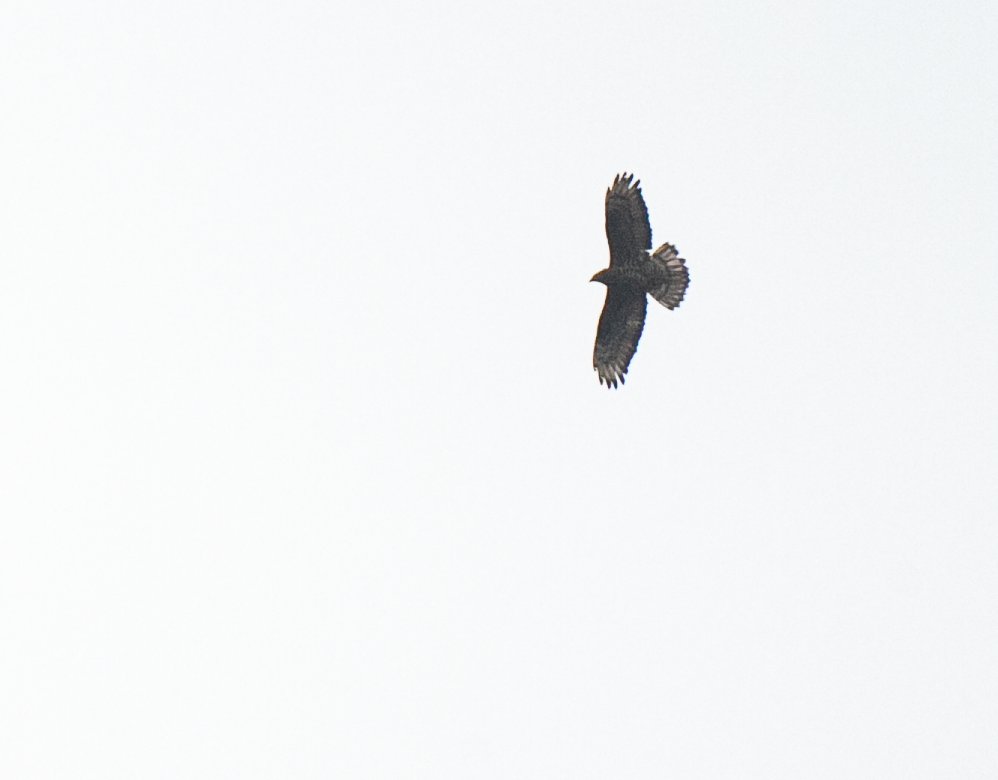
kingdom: Animalia
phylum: Chordata
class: Aves
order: Accipitriformes
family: Accipitridae
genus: Pernis
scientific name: Pernis apivorus
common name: European honey buzzard
